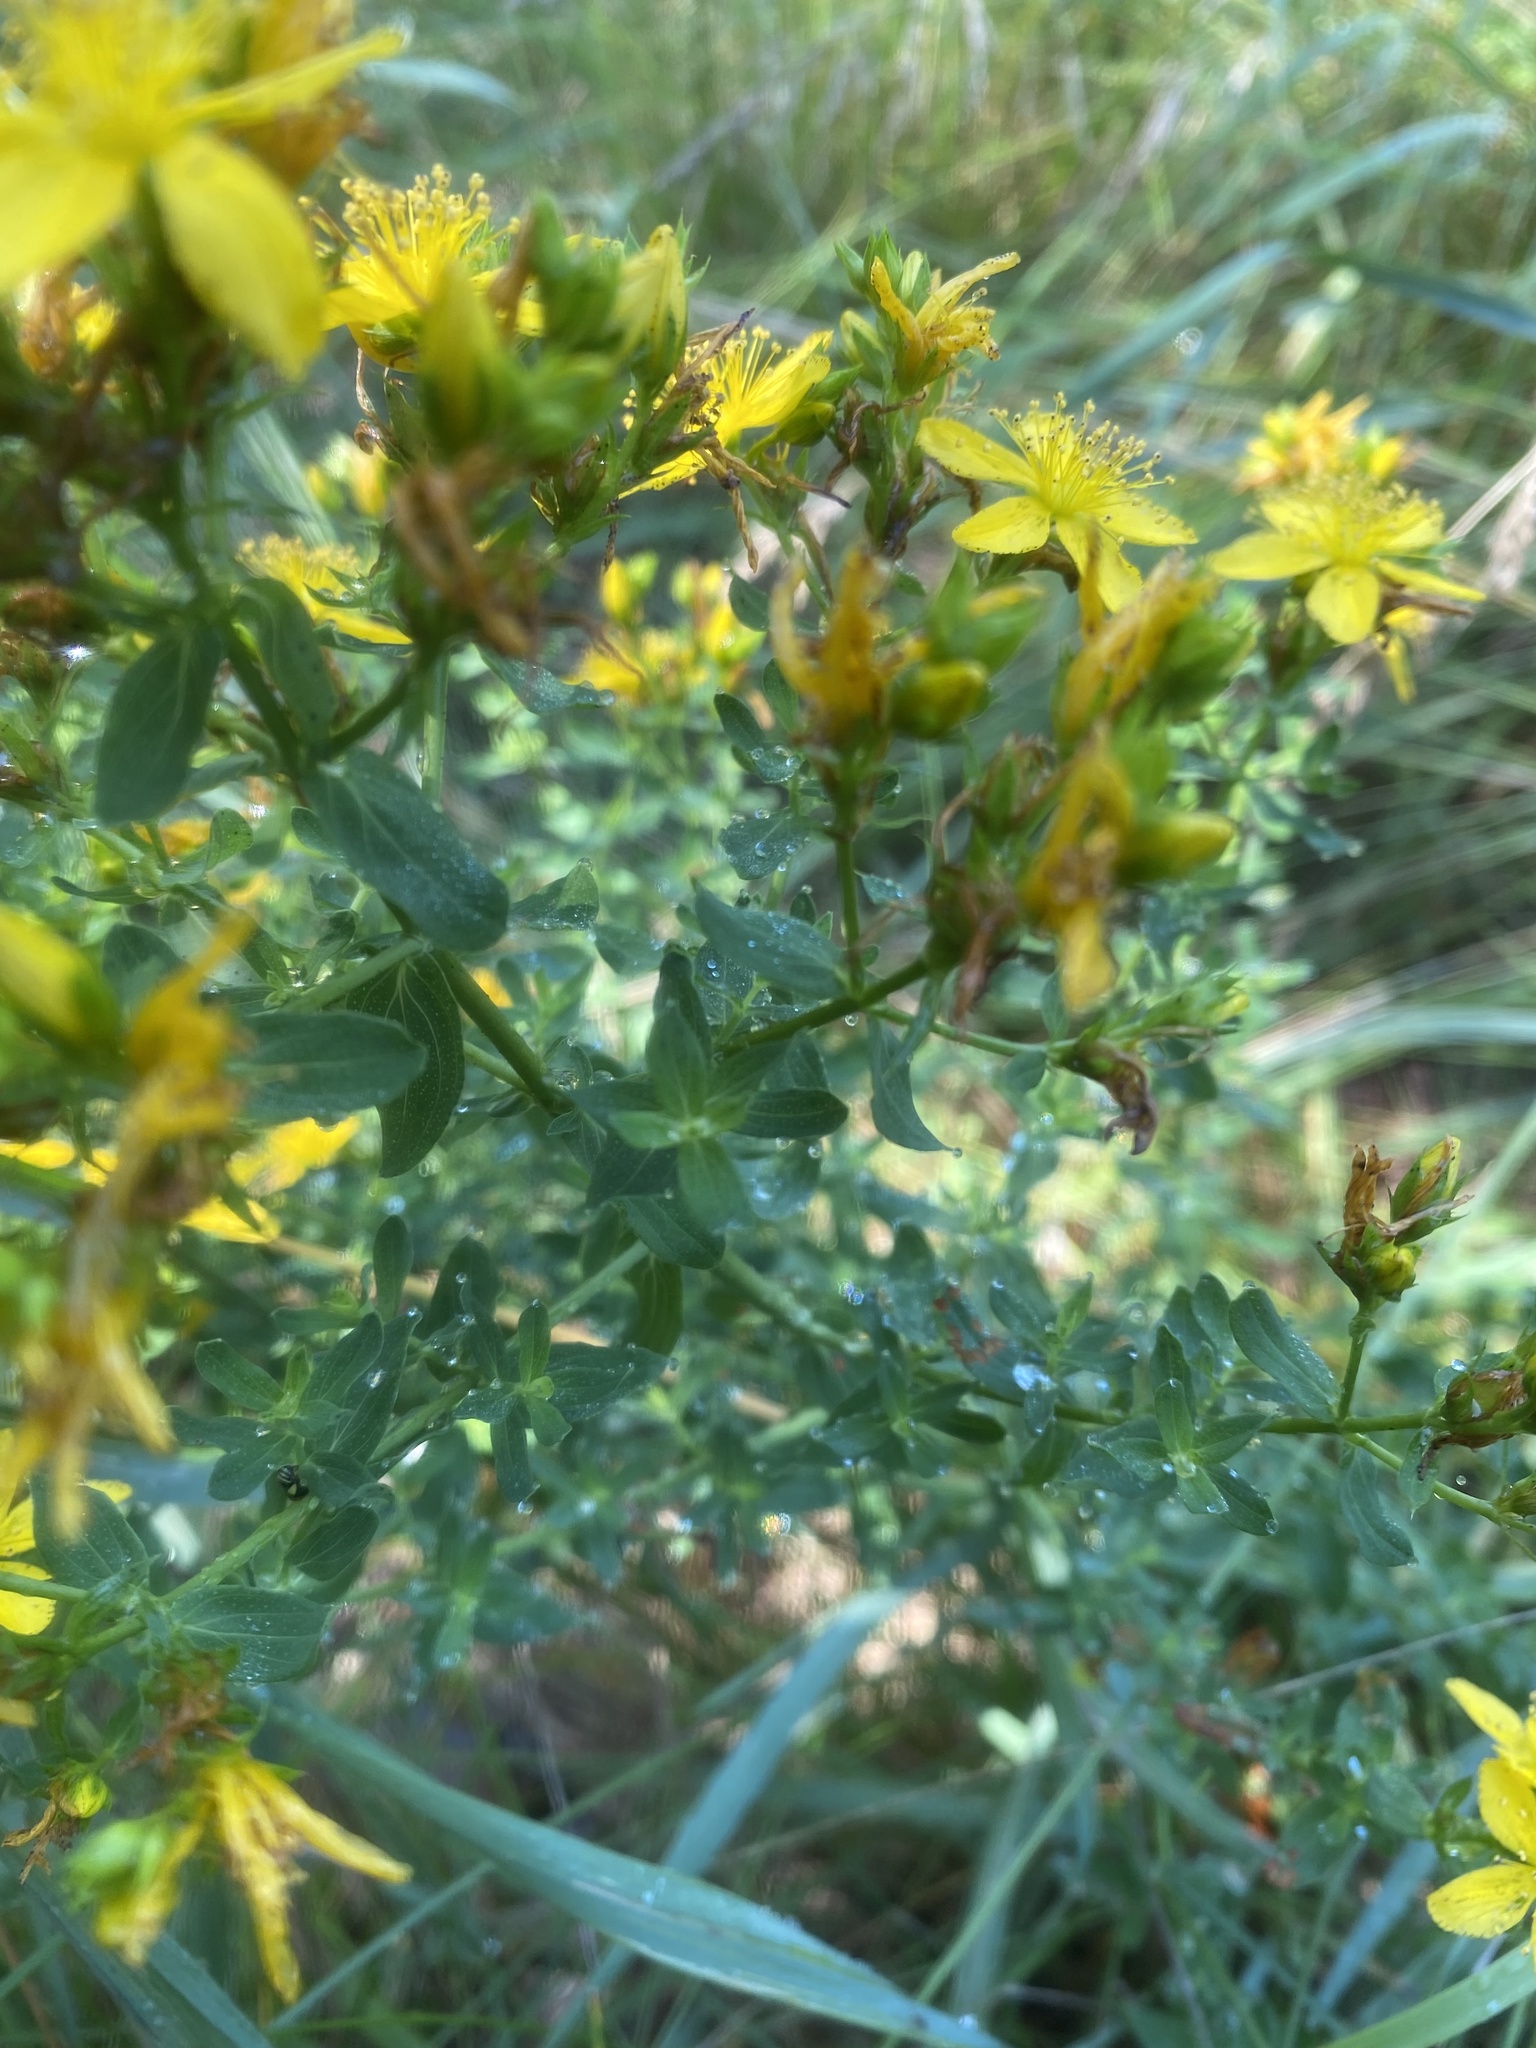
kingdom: Plantae
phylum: Tracheophyta
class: Magnoliopsida
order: Malpighiales
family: Hypericaceae
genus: Hypericum
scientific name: Hypericum perforatum
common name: Common st. johnswort
